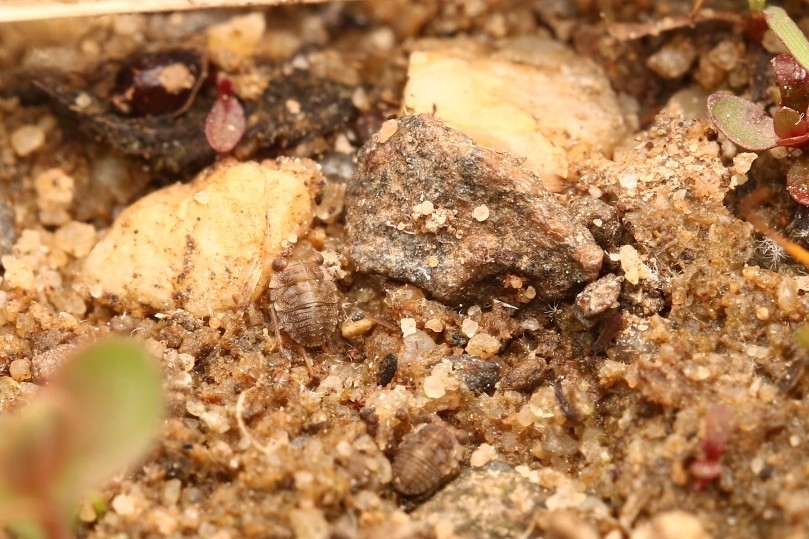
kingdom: Animalia
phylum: Arthropoda
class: Insecta
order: Hemiptera
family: Gelastocoridae
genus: Gelastocoris
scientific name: Gelastocoris oculatus
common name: Toad bug
